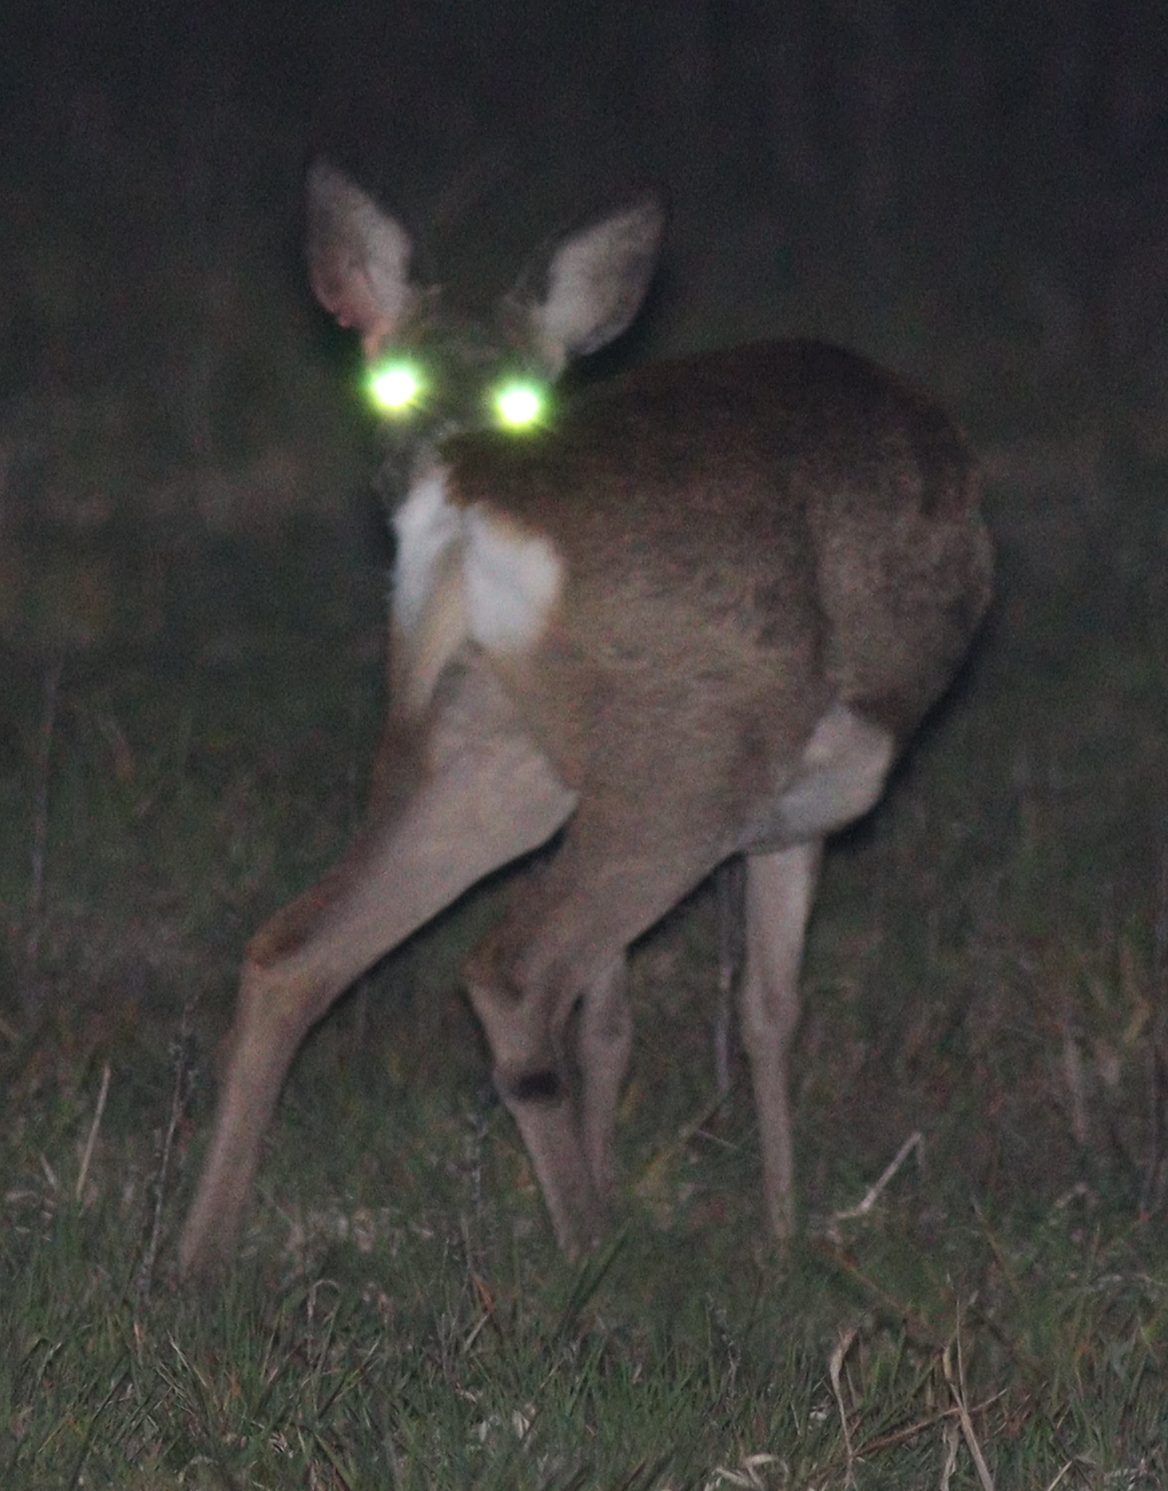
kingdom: Animalia
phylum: Chordata
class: Mammalia
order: Artiodactyla
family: Cervidae
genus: Capreolus
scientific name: Capreolus capreolus
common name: Western roe deer
